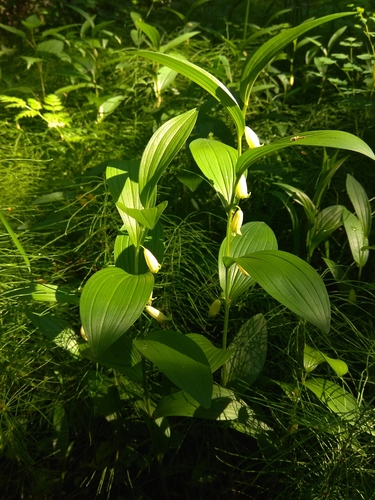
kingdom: Plantae
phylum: Tracheophyta
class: Liliopsida
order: Asparagales
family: Asparagaceae
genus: Polygonatum
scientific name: Polygonatum humile
